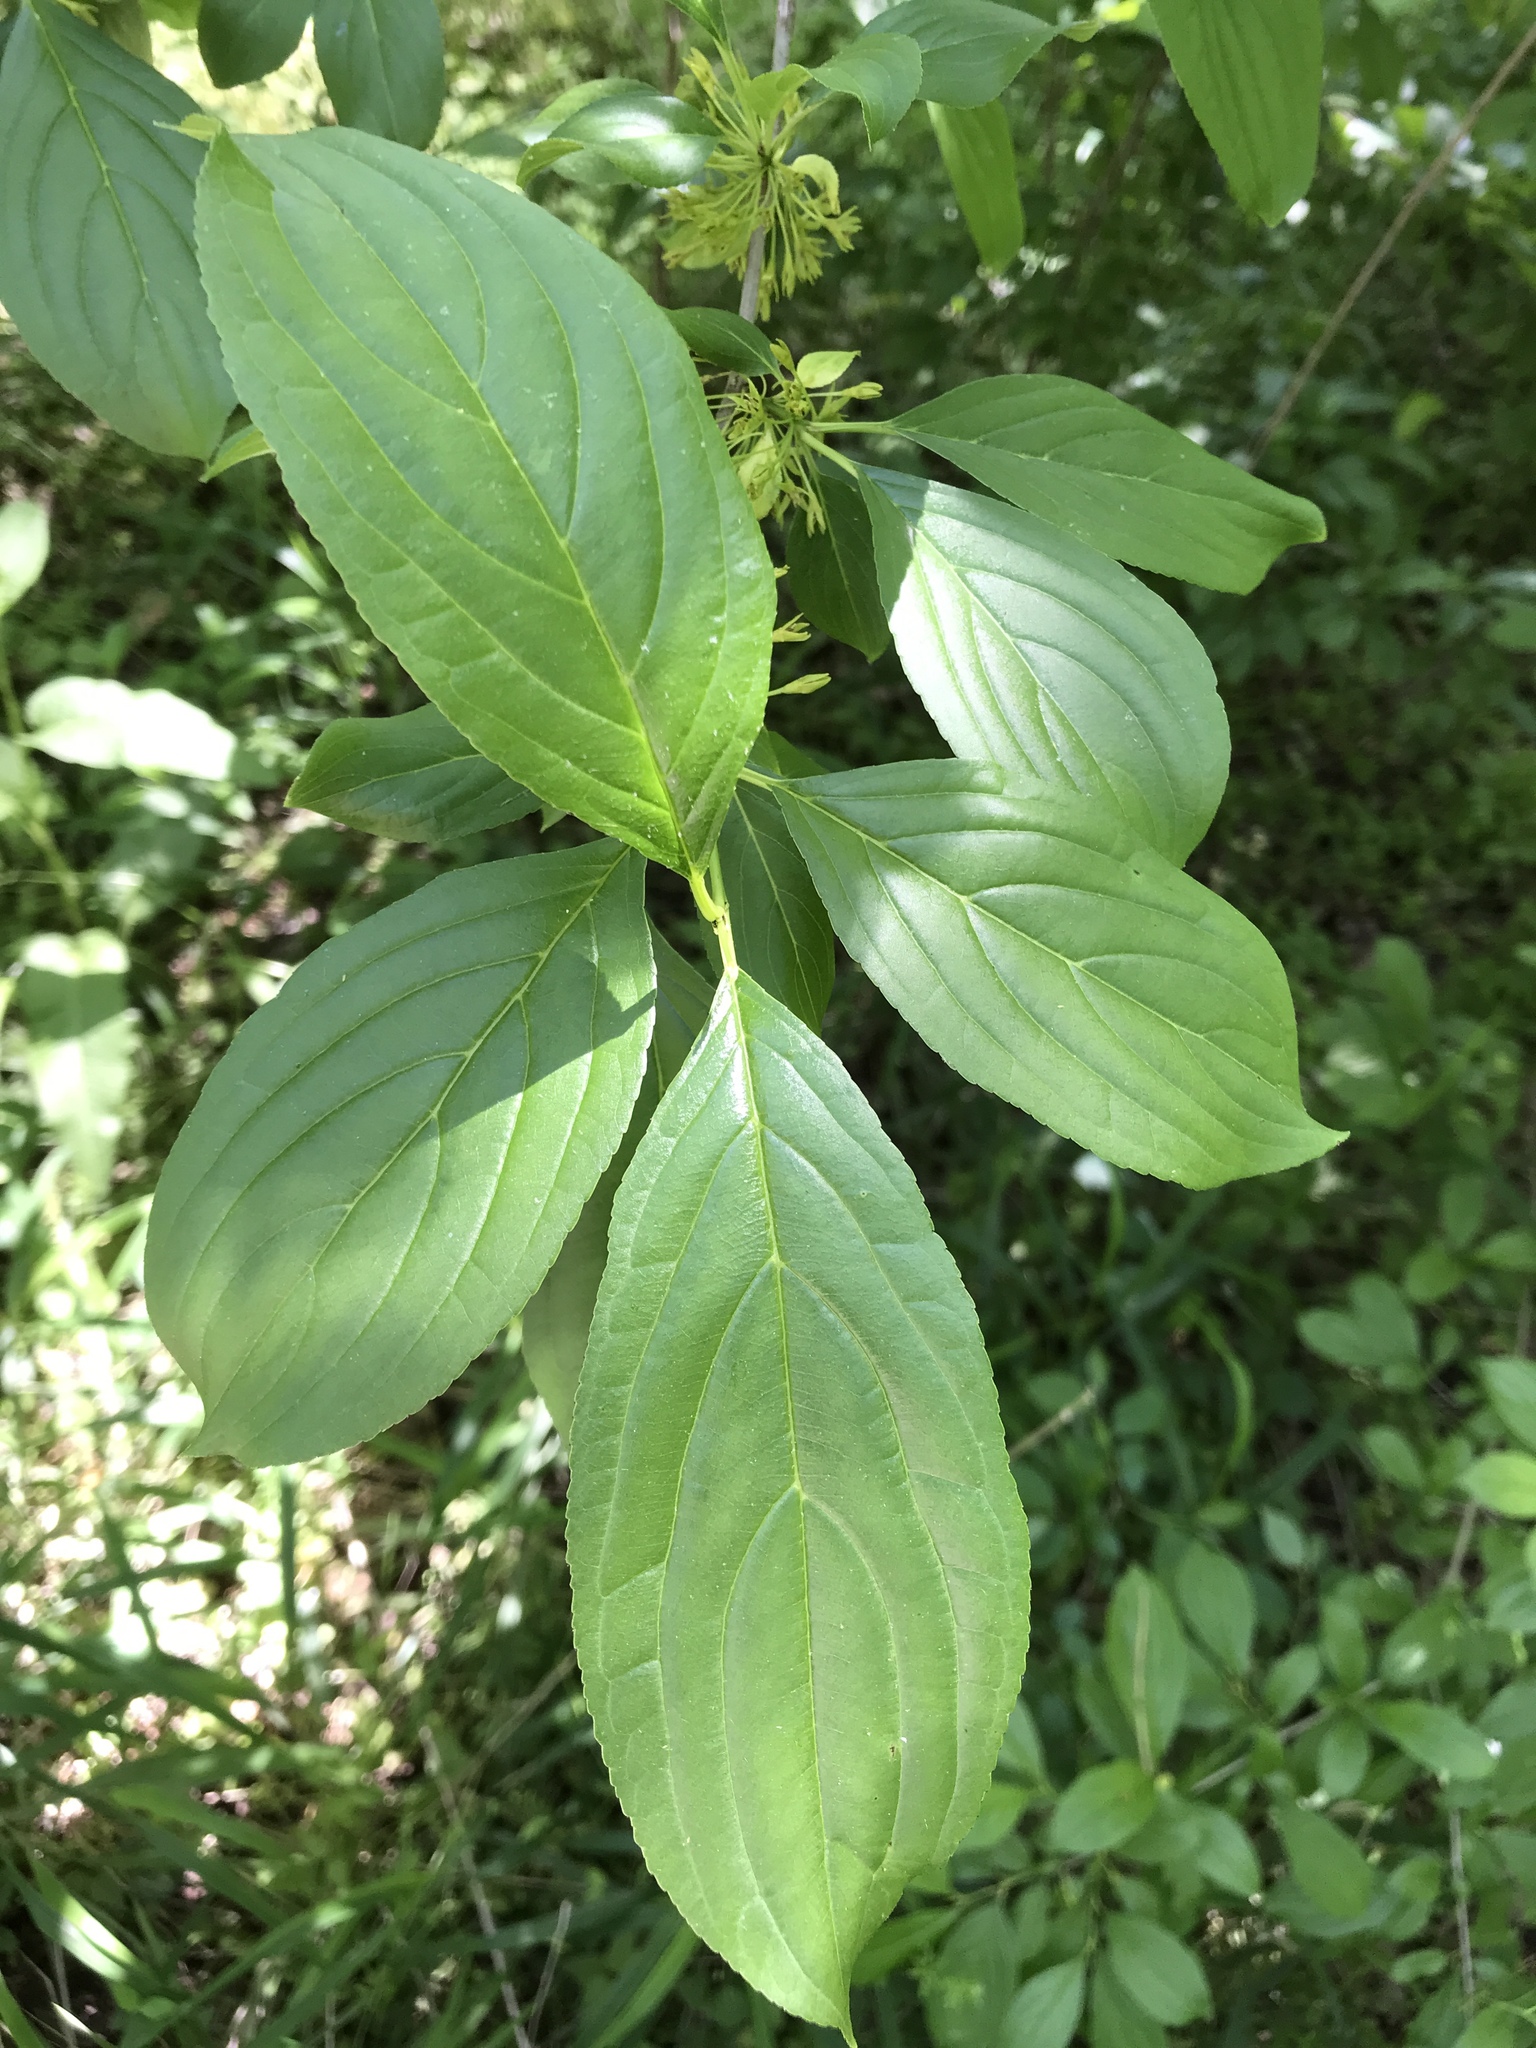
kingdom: Plantae
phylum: Tracheophyta
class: Magnoliopsida
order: Rosales
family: Rhamnaceae
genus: Rhamnus
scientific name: Rhamnus virgata
